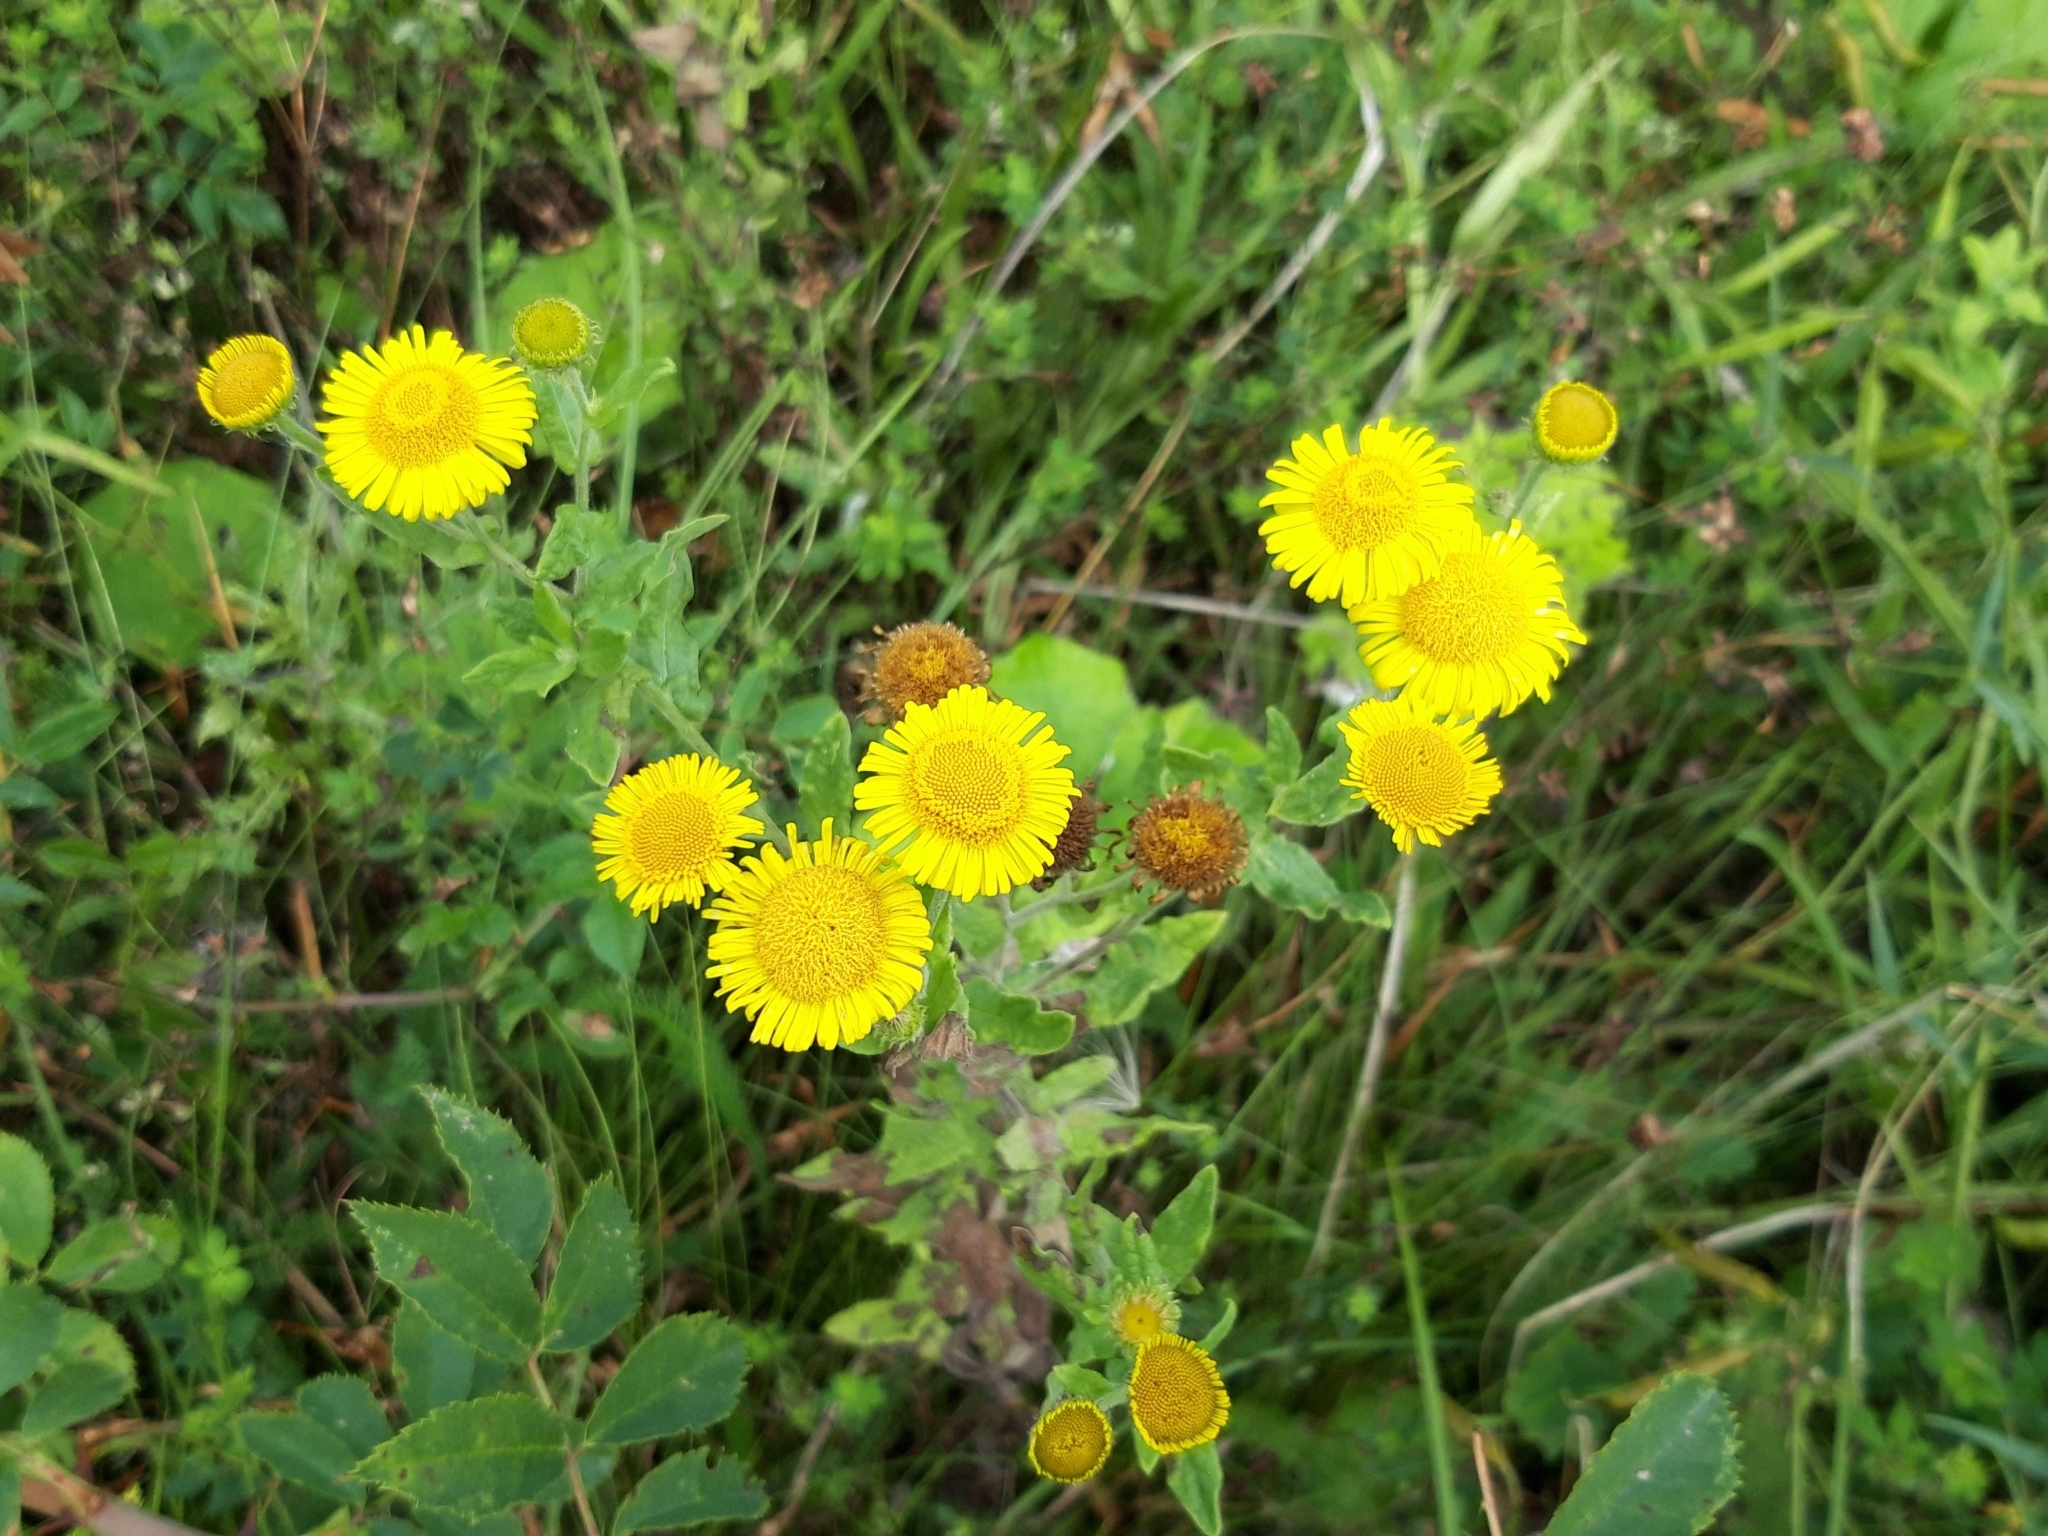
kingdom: Plantae
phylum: Tracheophyta
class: Magnoliopsida
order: Asterales
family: Asteraceae
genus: Pulicaria
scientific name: Pulicaria dysenterica
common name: Common fleabane
